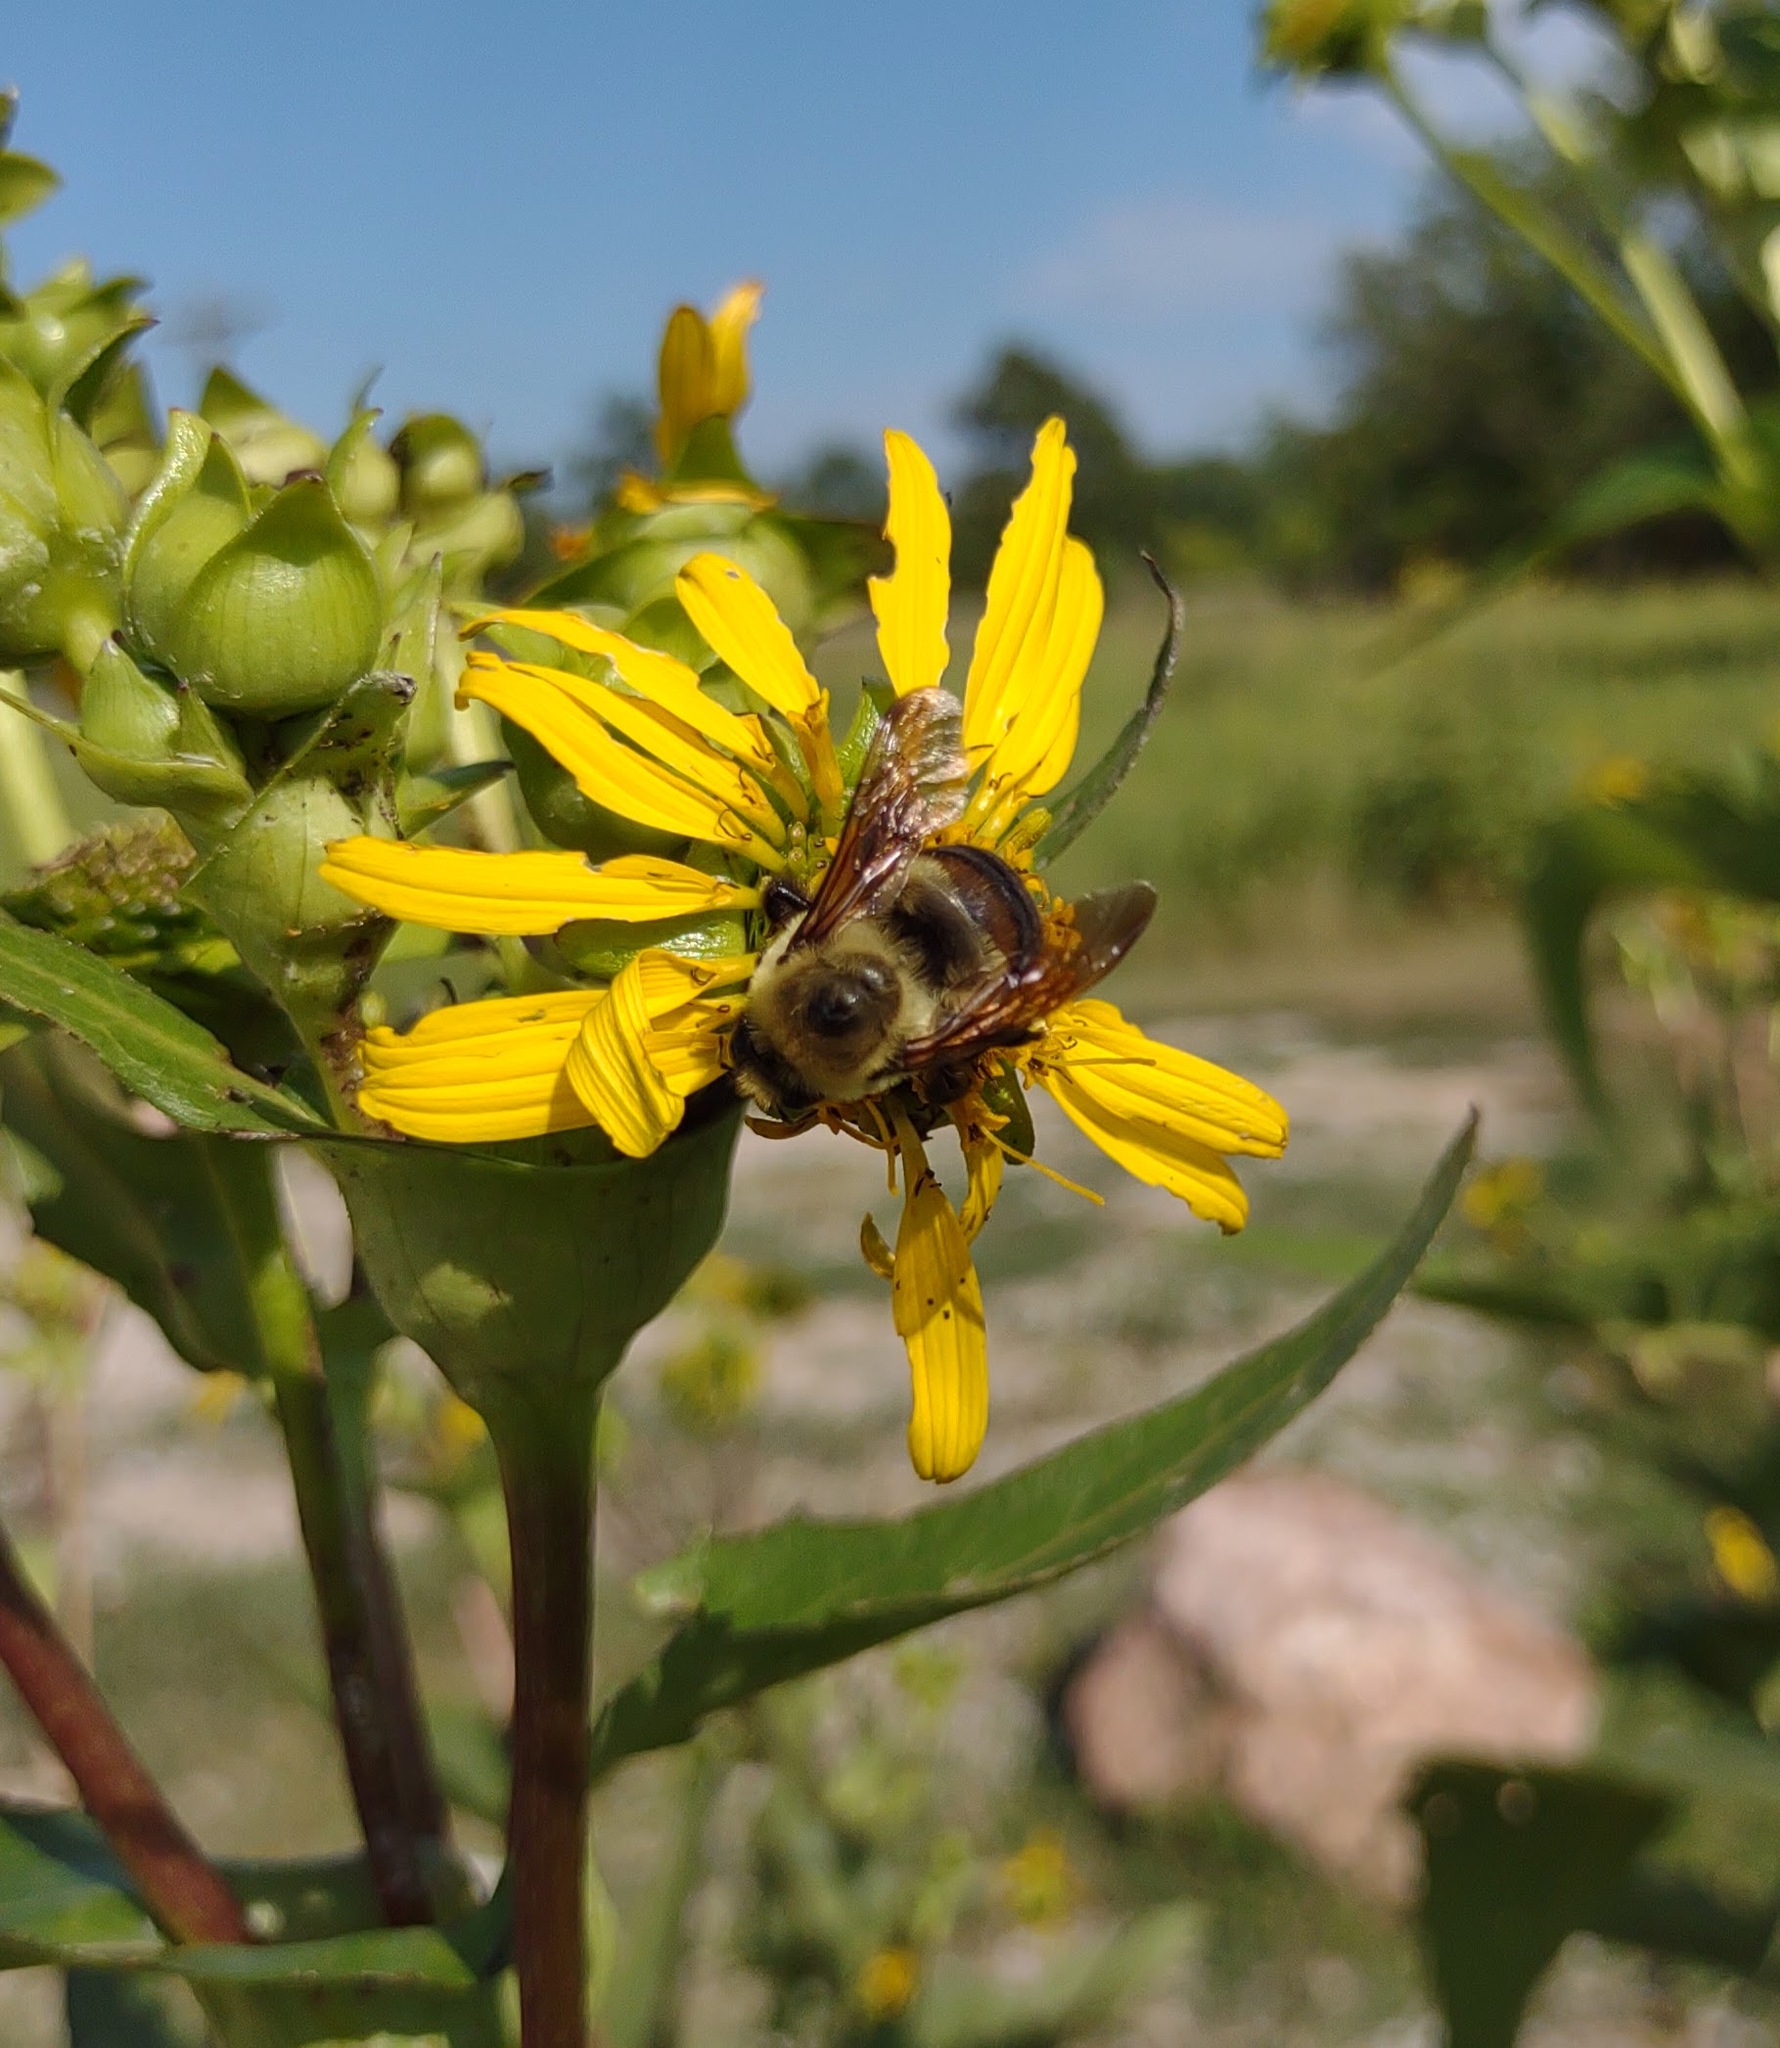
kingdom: Animalia
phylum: Arthropoda
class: Insecta
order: Hymenoptera
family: Apidae
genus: Bombus
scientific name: Bombus griseocollis
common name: Brown-belted bumble bee
